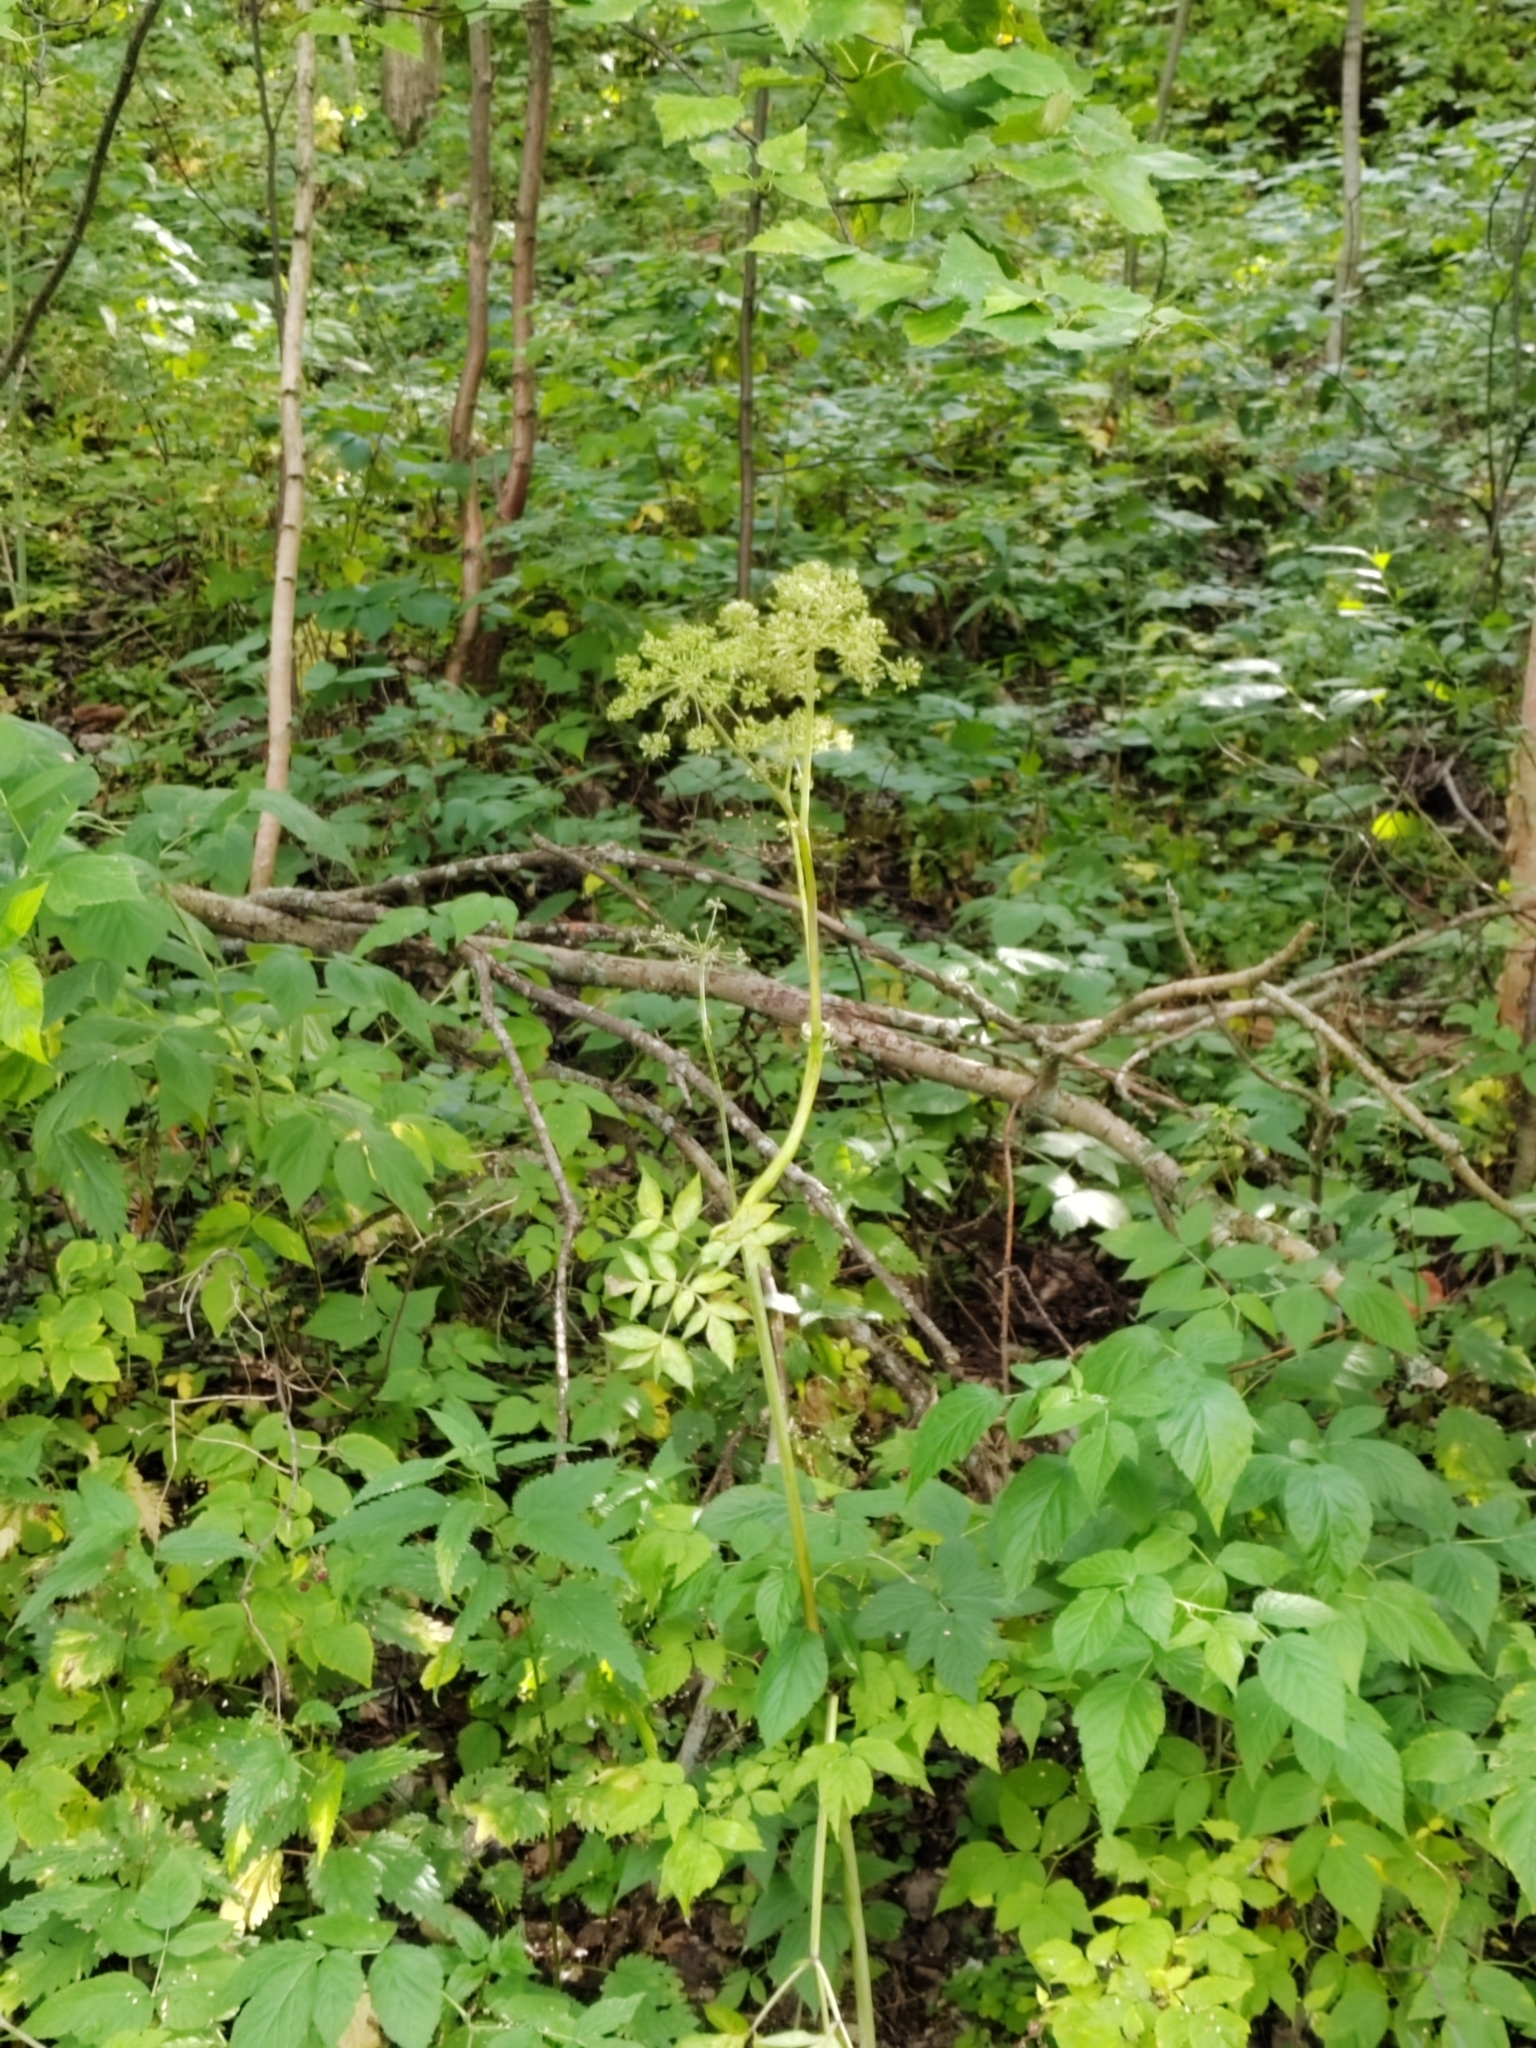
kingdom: Plantae
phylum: Tracheophyta
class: Magnoliopsida
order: Apiales
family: Apiaceae
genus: Angelica
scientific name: Angelica sylvestris
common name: Wild angelica
